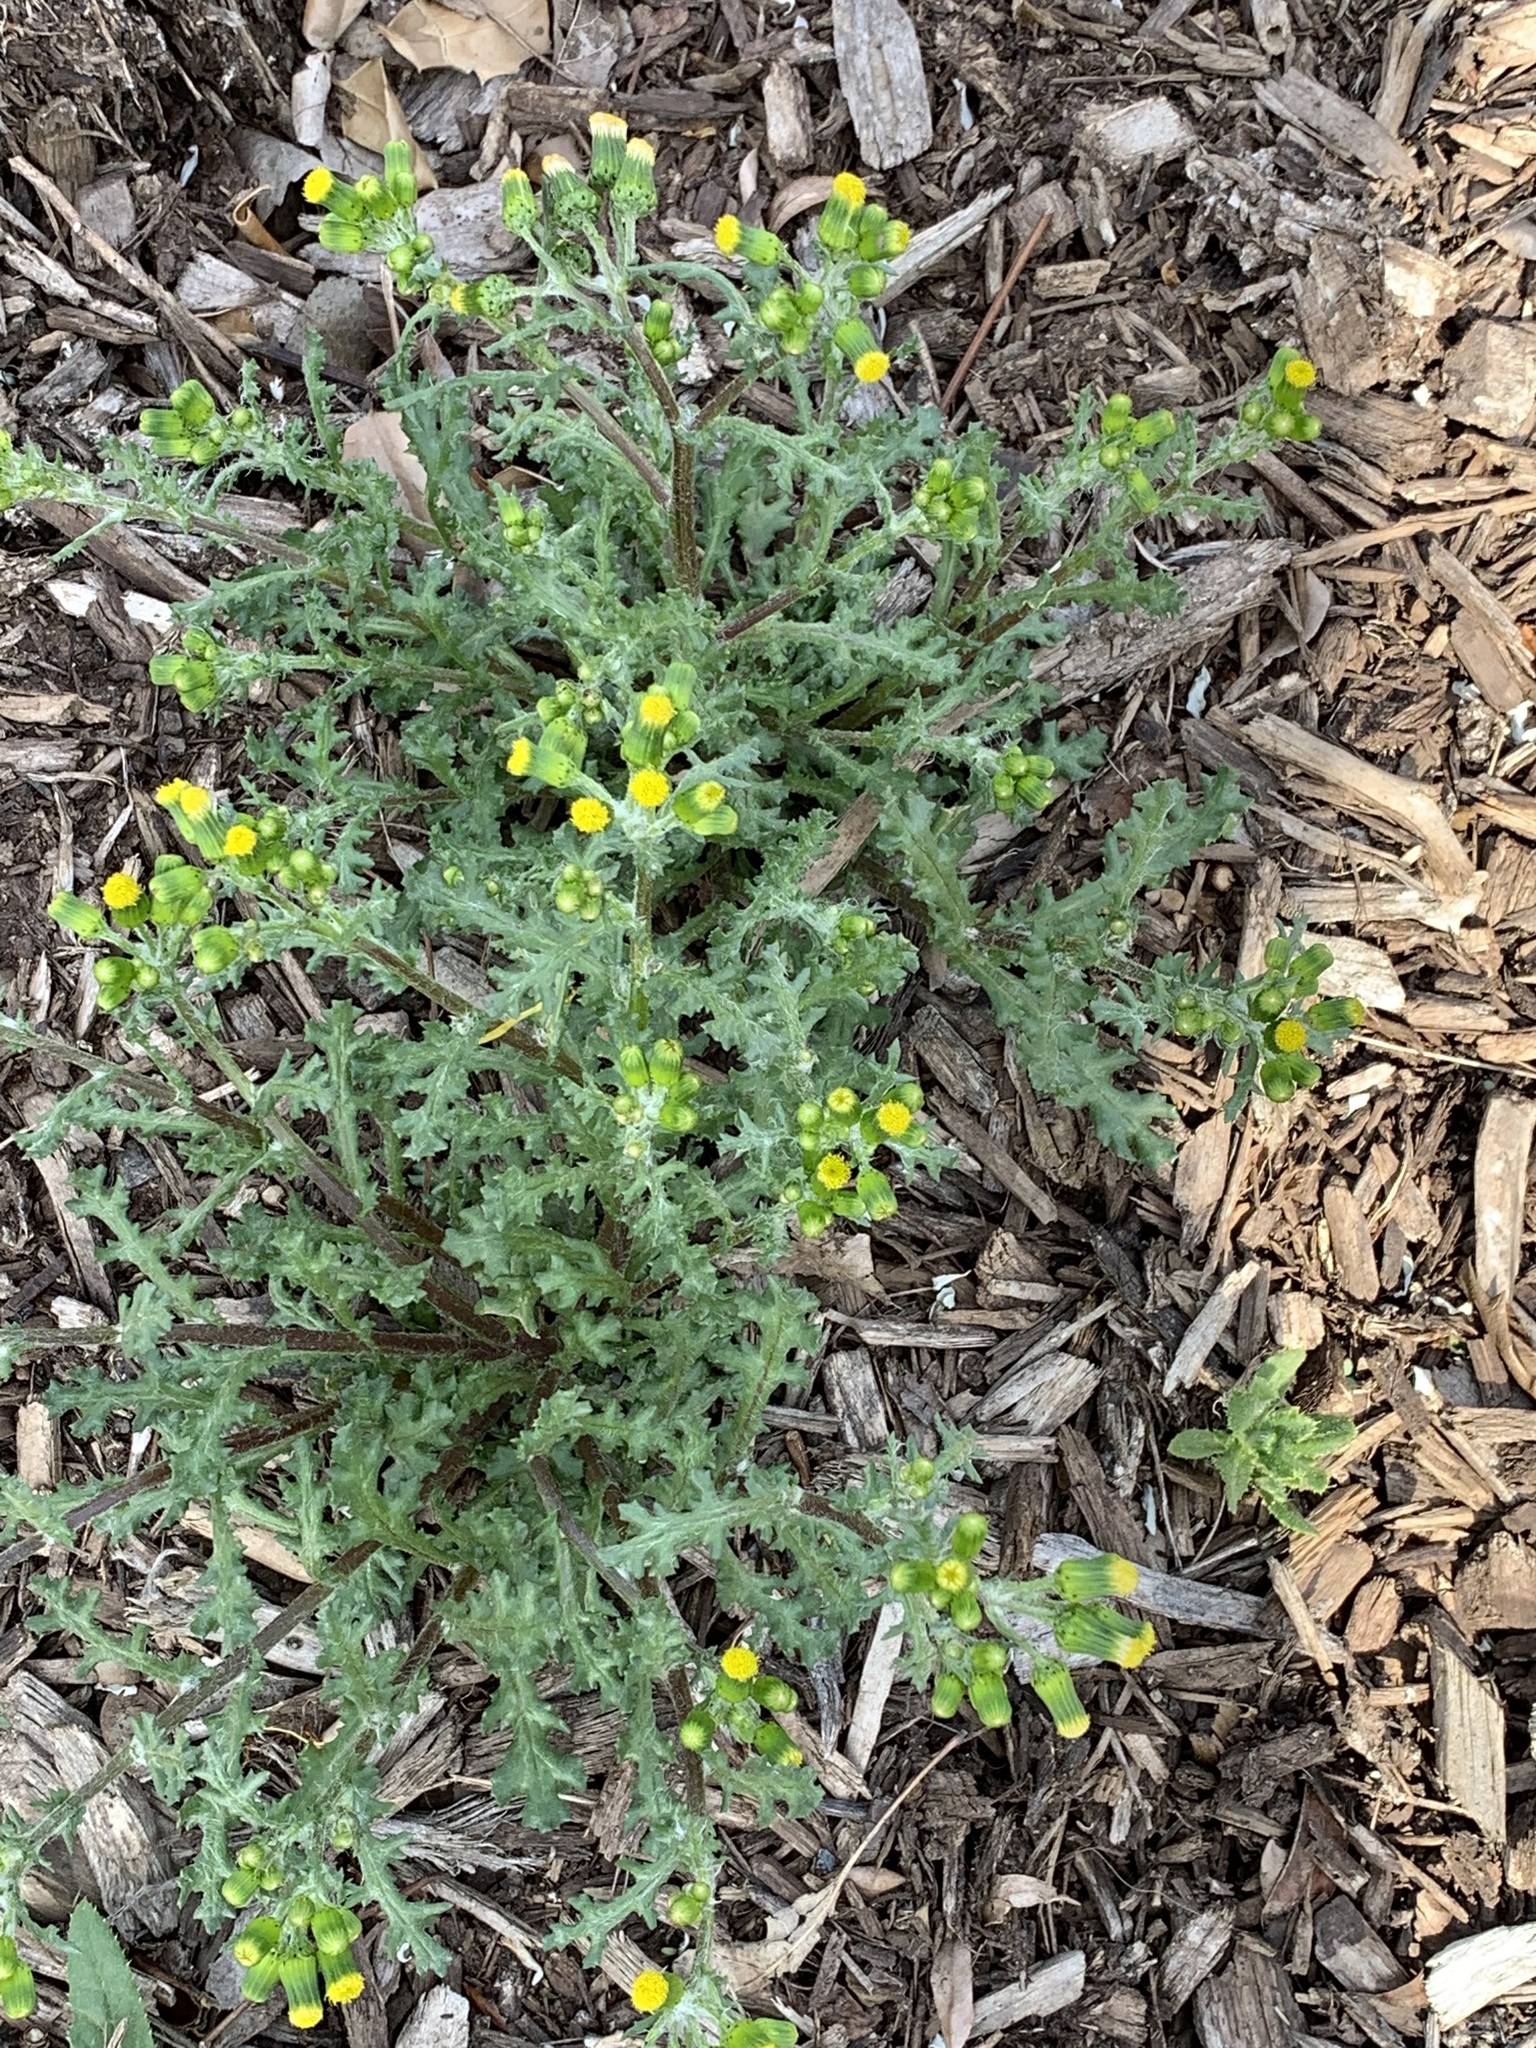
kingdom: Plantae
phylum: Tracheophyta
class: Magnoliopsida
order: Asterales
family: Asteraceae
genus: Senecio
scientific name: Senecio vulgaris
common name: Old-man-in-the-spring
